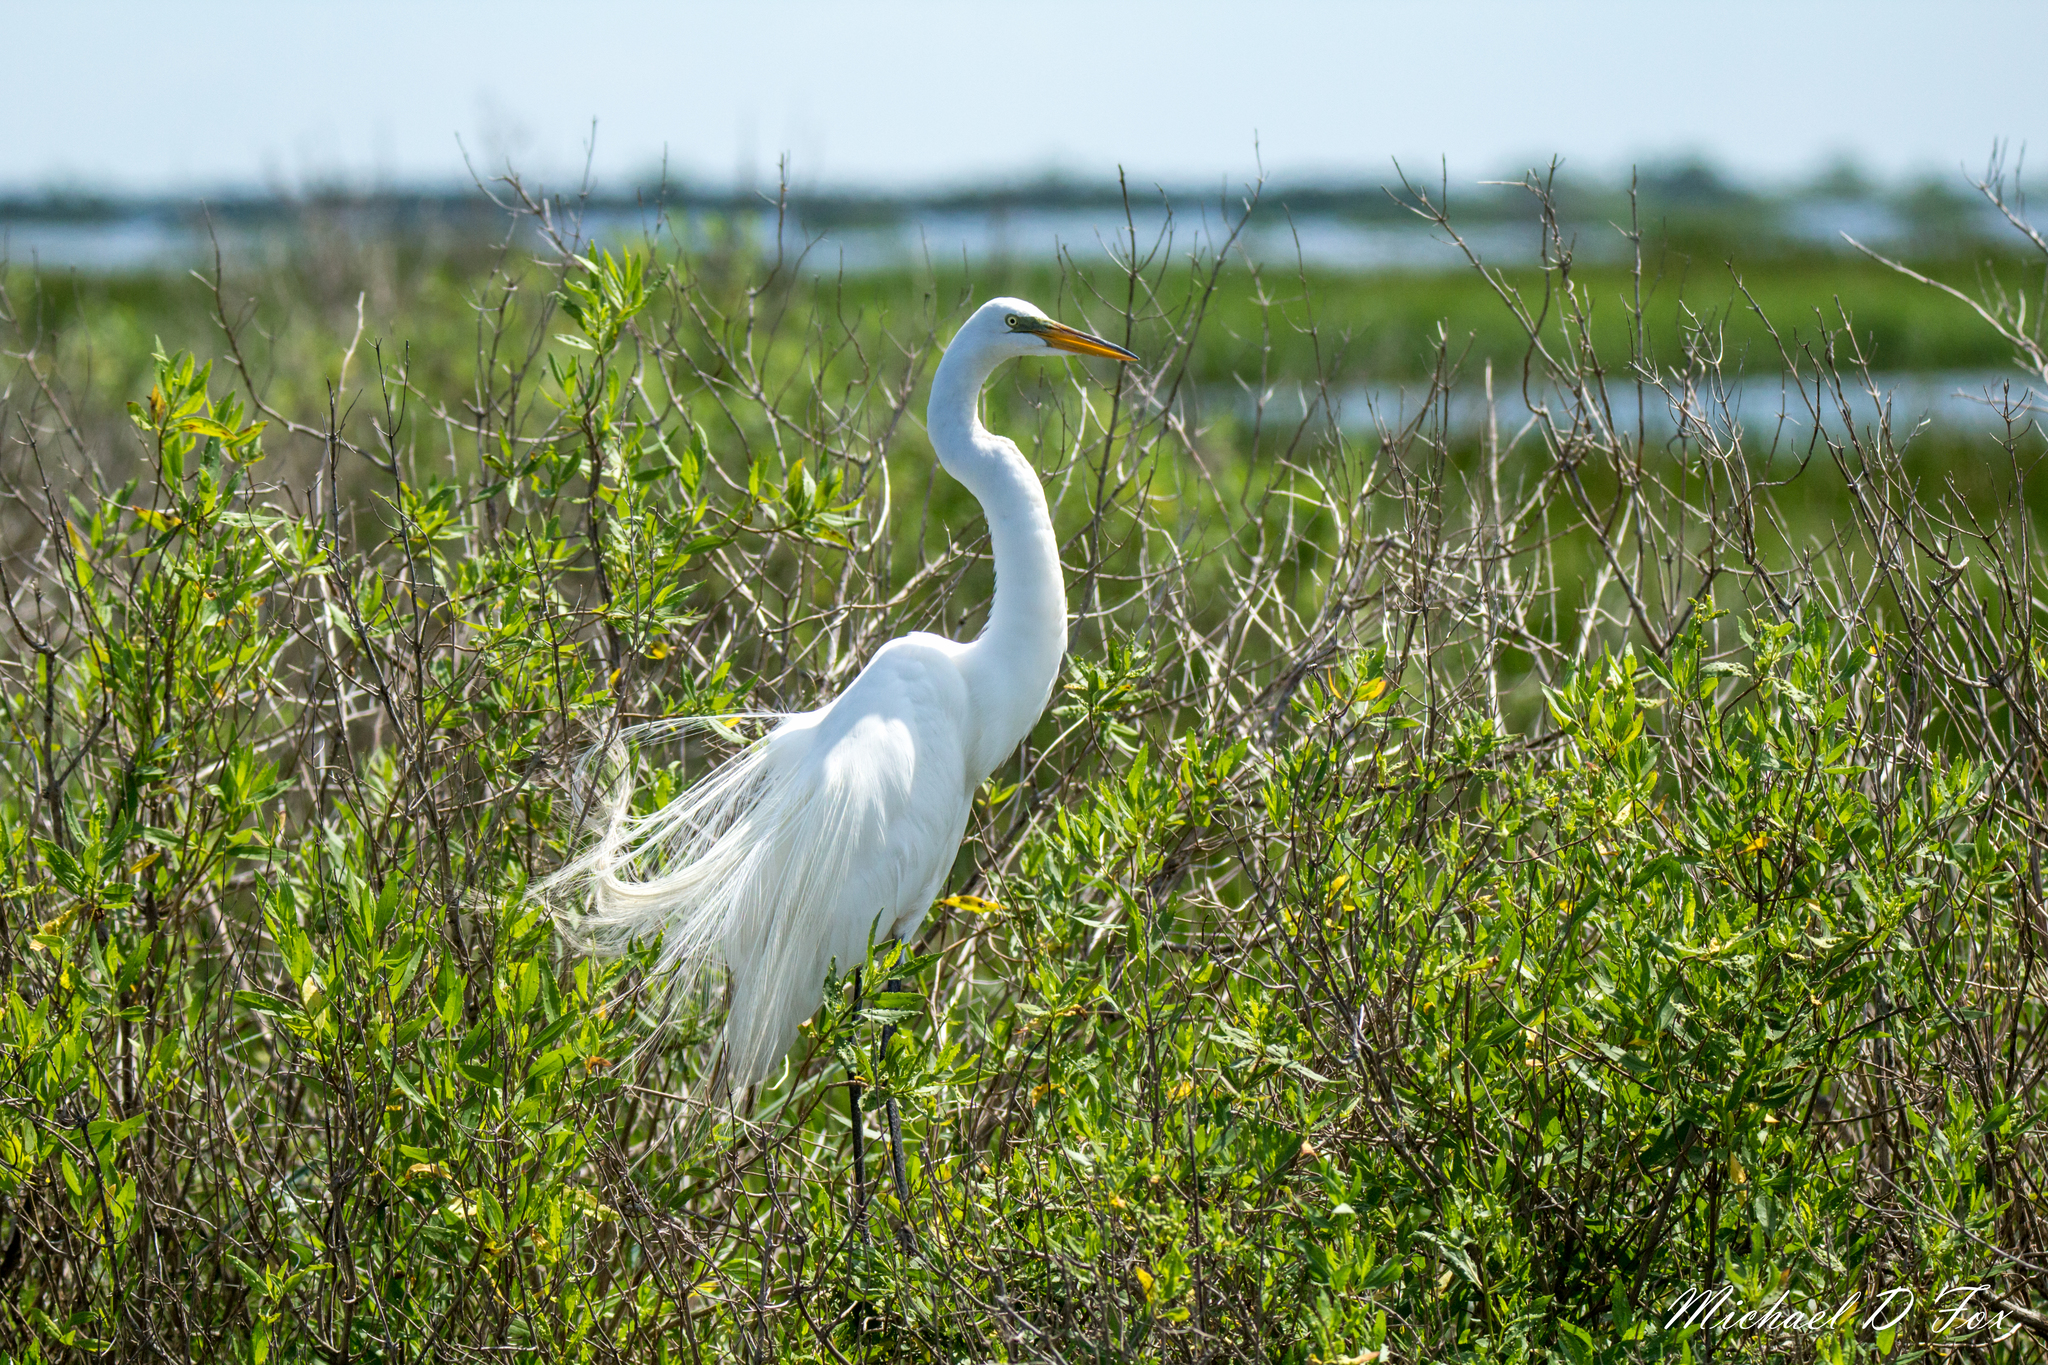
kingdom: Animalia
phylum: Chordata
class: Aves
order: Pelecaniformes
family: Ardeidae
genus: Ardea
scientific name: Ardea alba
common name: Great egret
